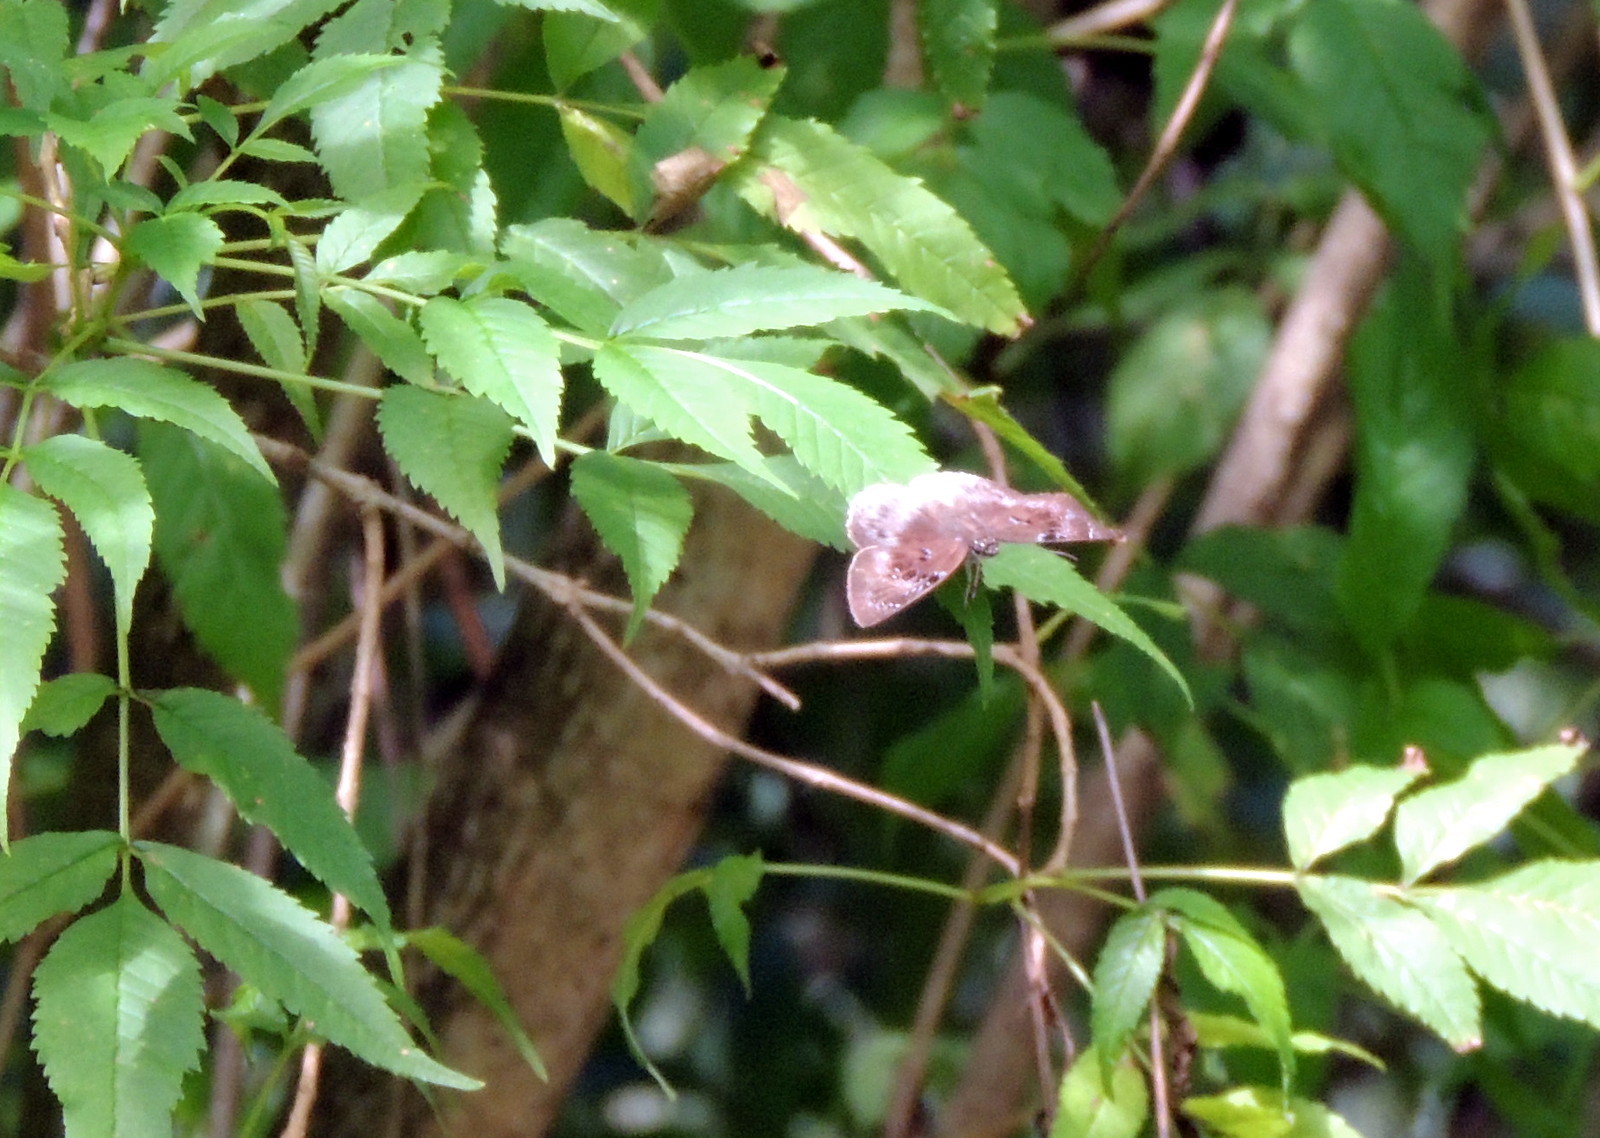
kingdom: Animalia
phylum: Arthropoda
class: Insecta
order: Lepidoptera
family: Hesperiidae
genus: Tagiades
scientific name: Tagiades flesus
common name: Clouded flat
